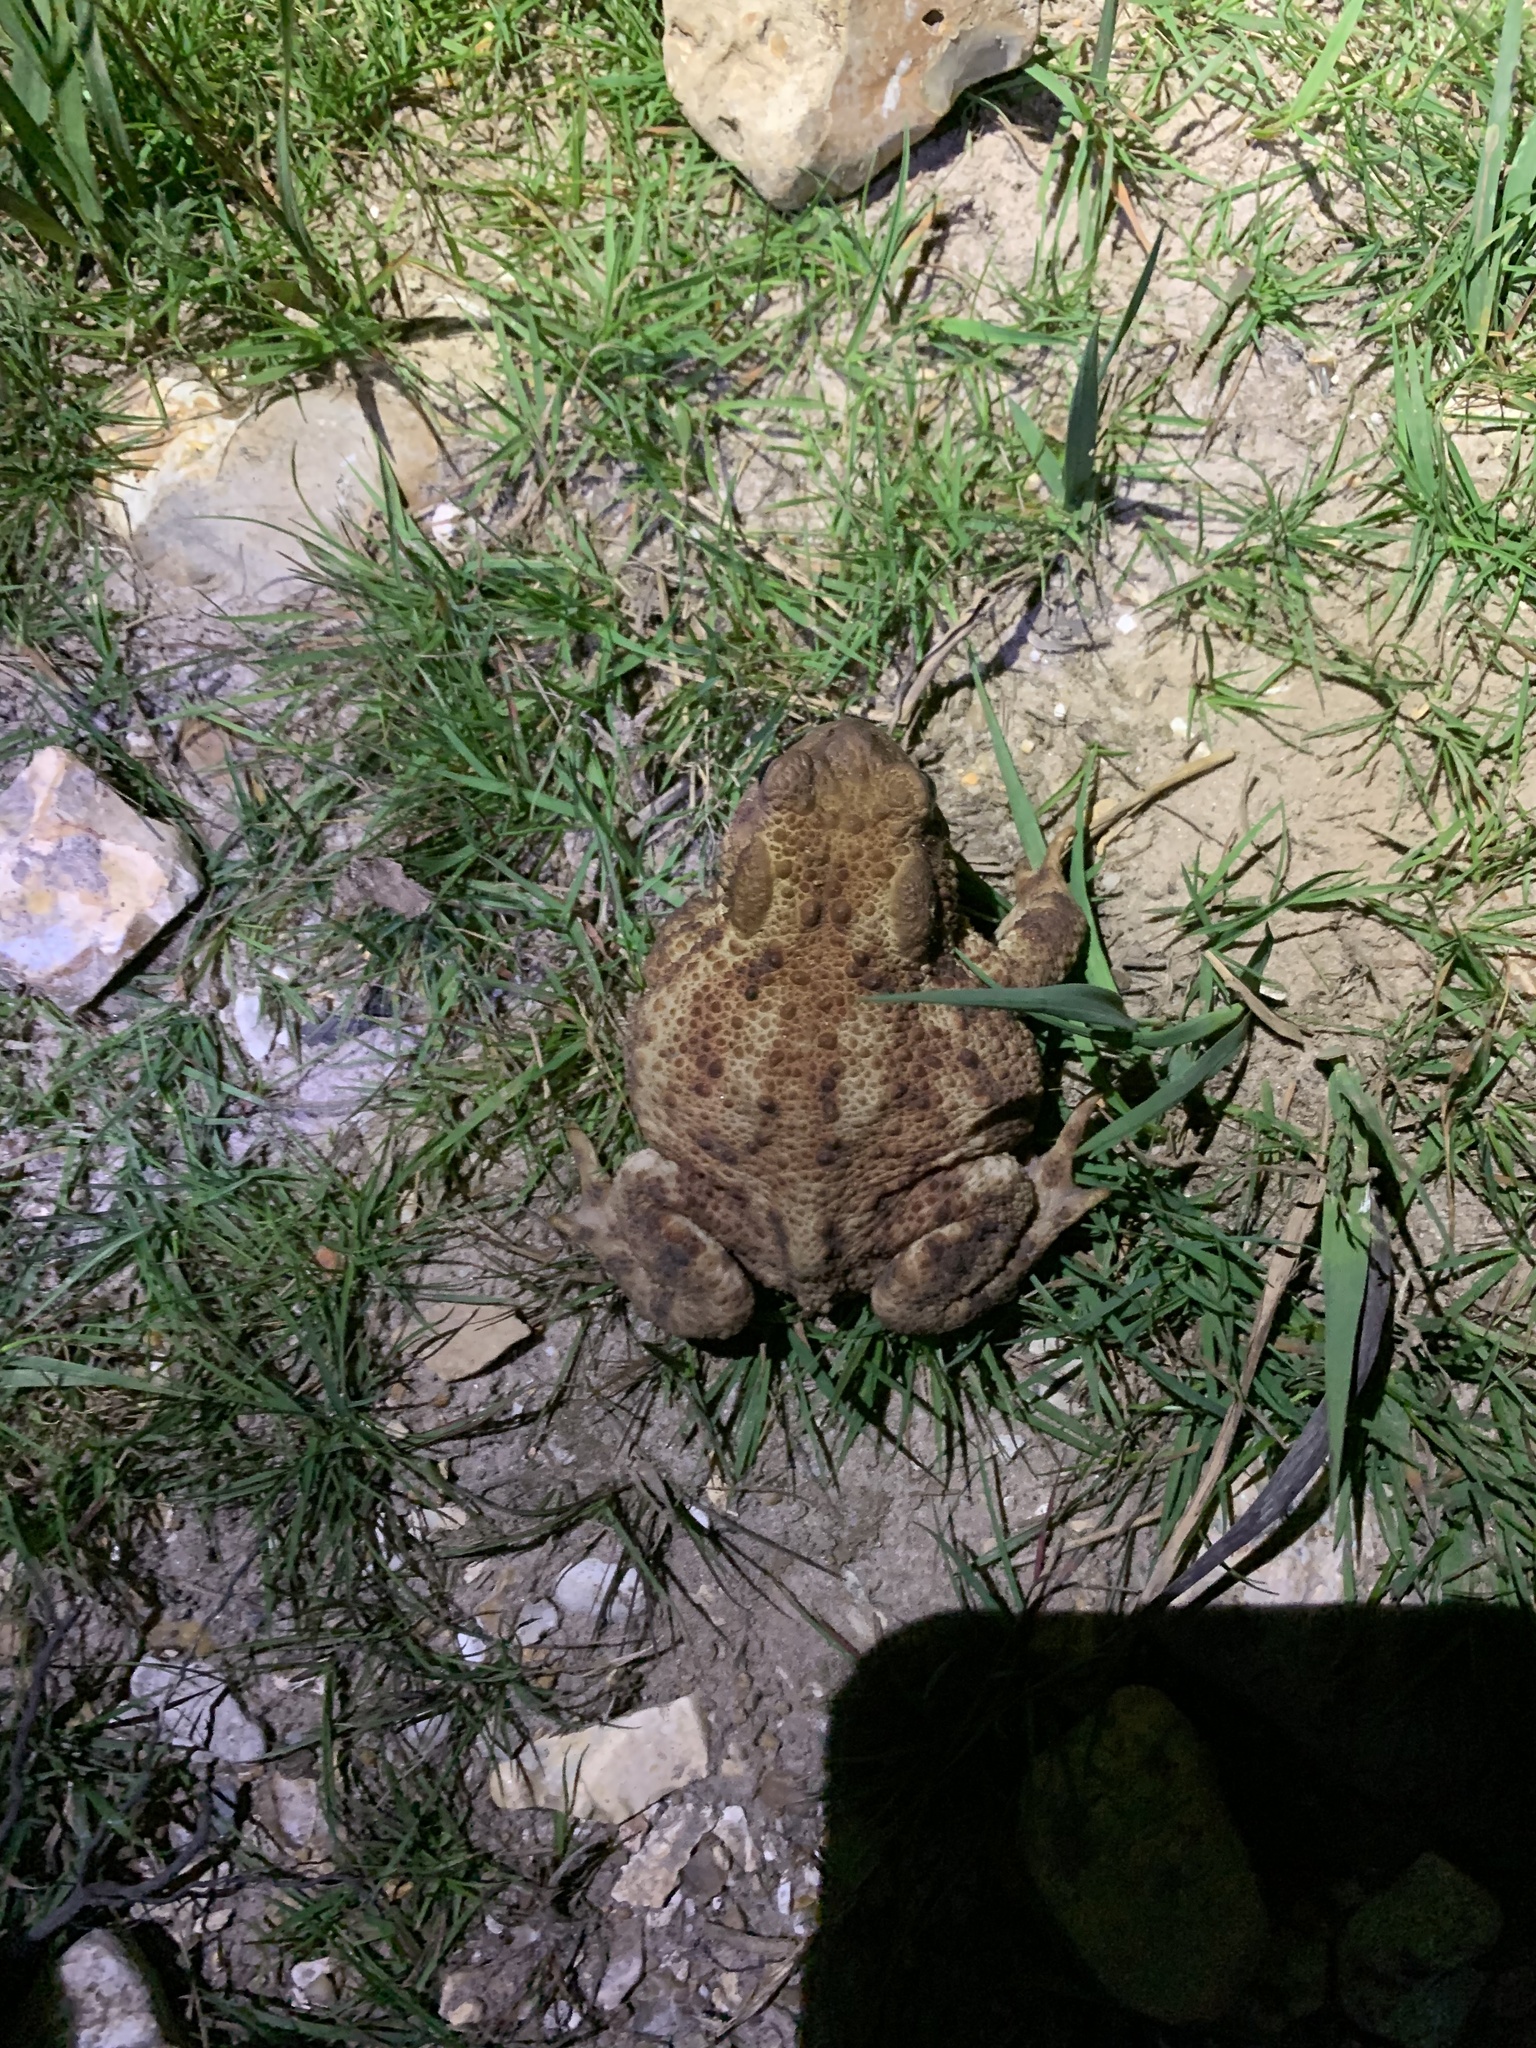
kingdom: Animalia
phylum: Chordata
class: Amphibia
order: Anura
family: Bufonidae
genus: Bufo
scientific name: Bufo bufo
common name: Common toad
